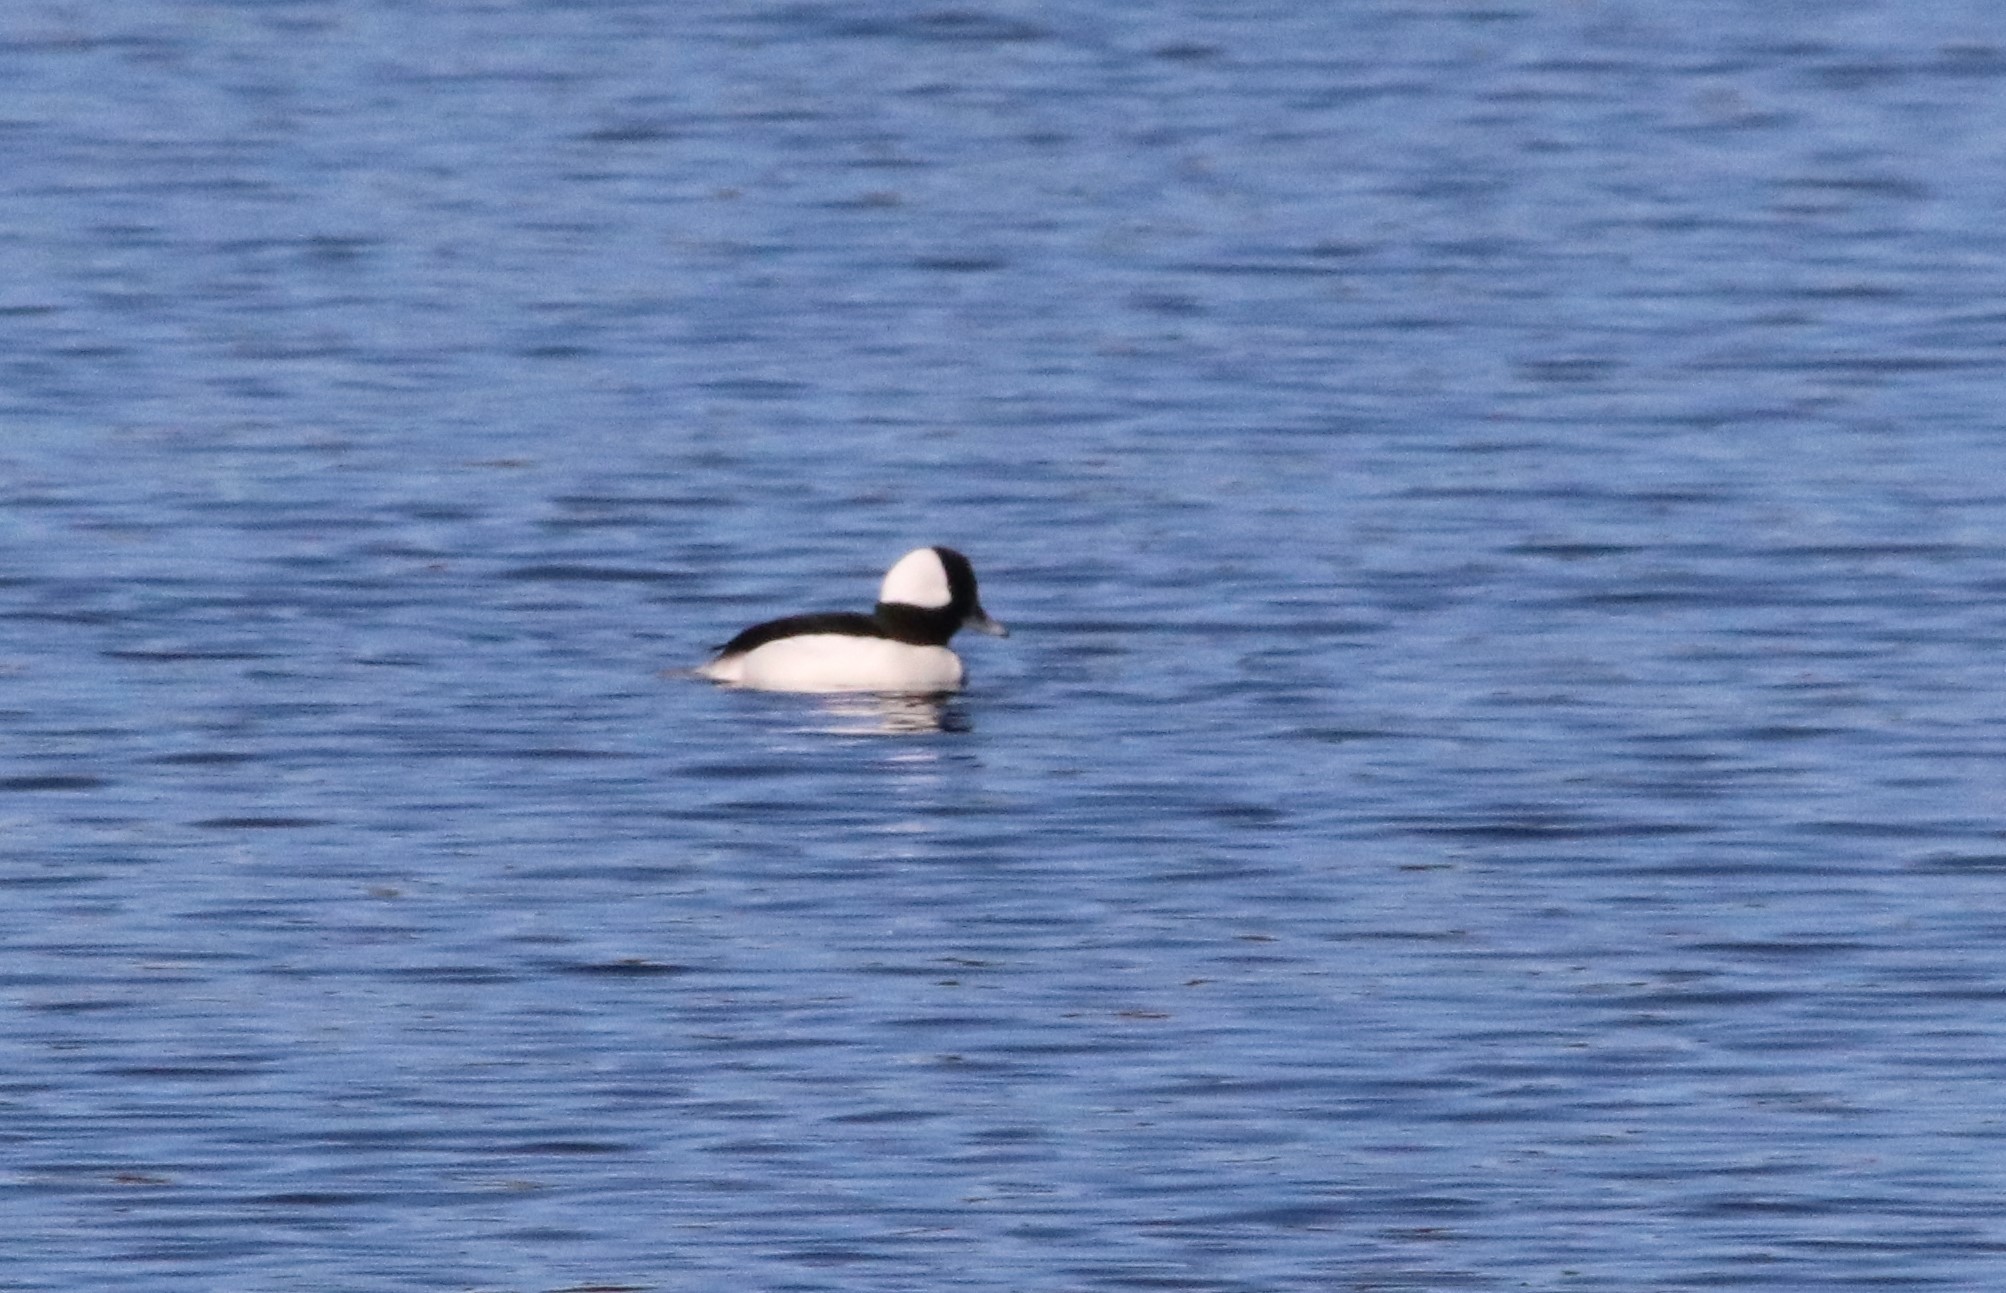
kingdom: Animalia
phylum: Chordata
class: Aves
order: Anseriformes
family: Anatidae
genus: Bucephala
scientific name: Bucephala albeola
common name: Bufflehead
